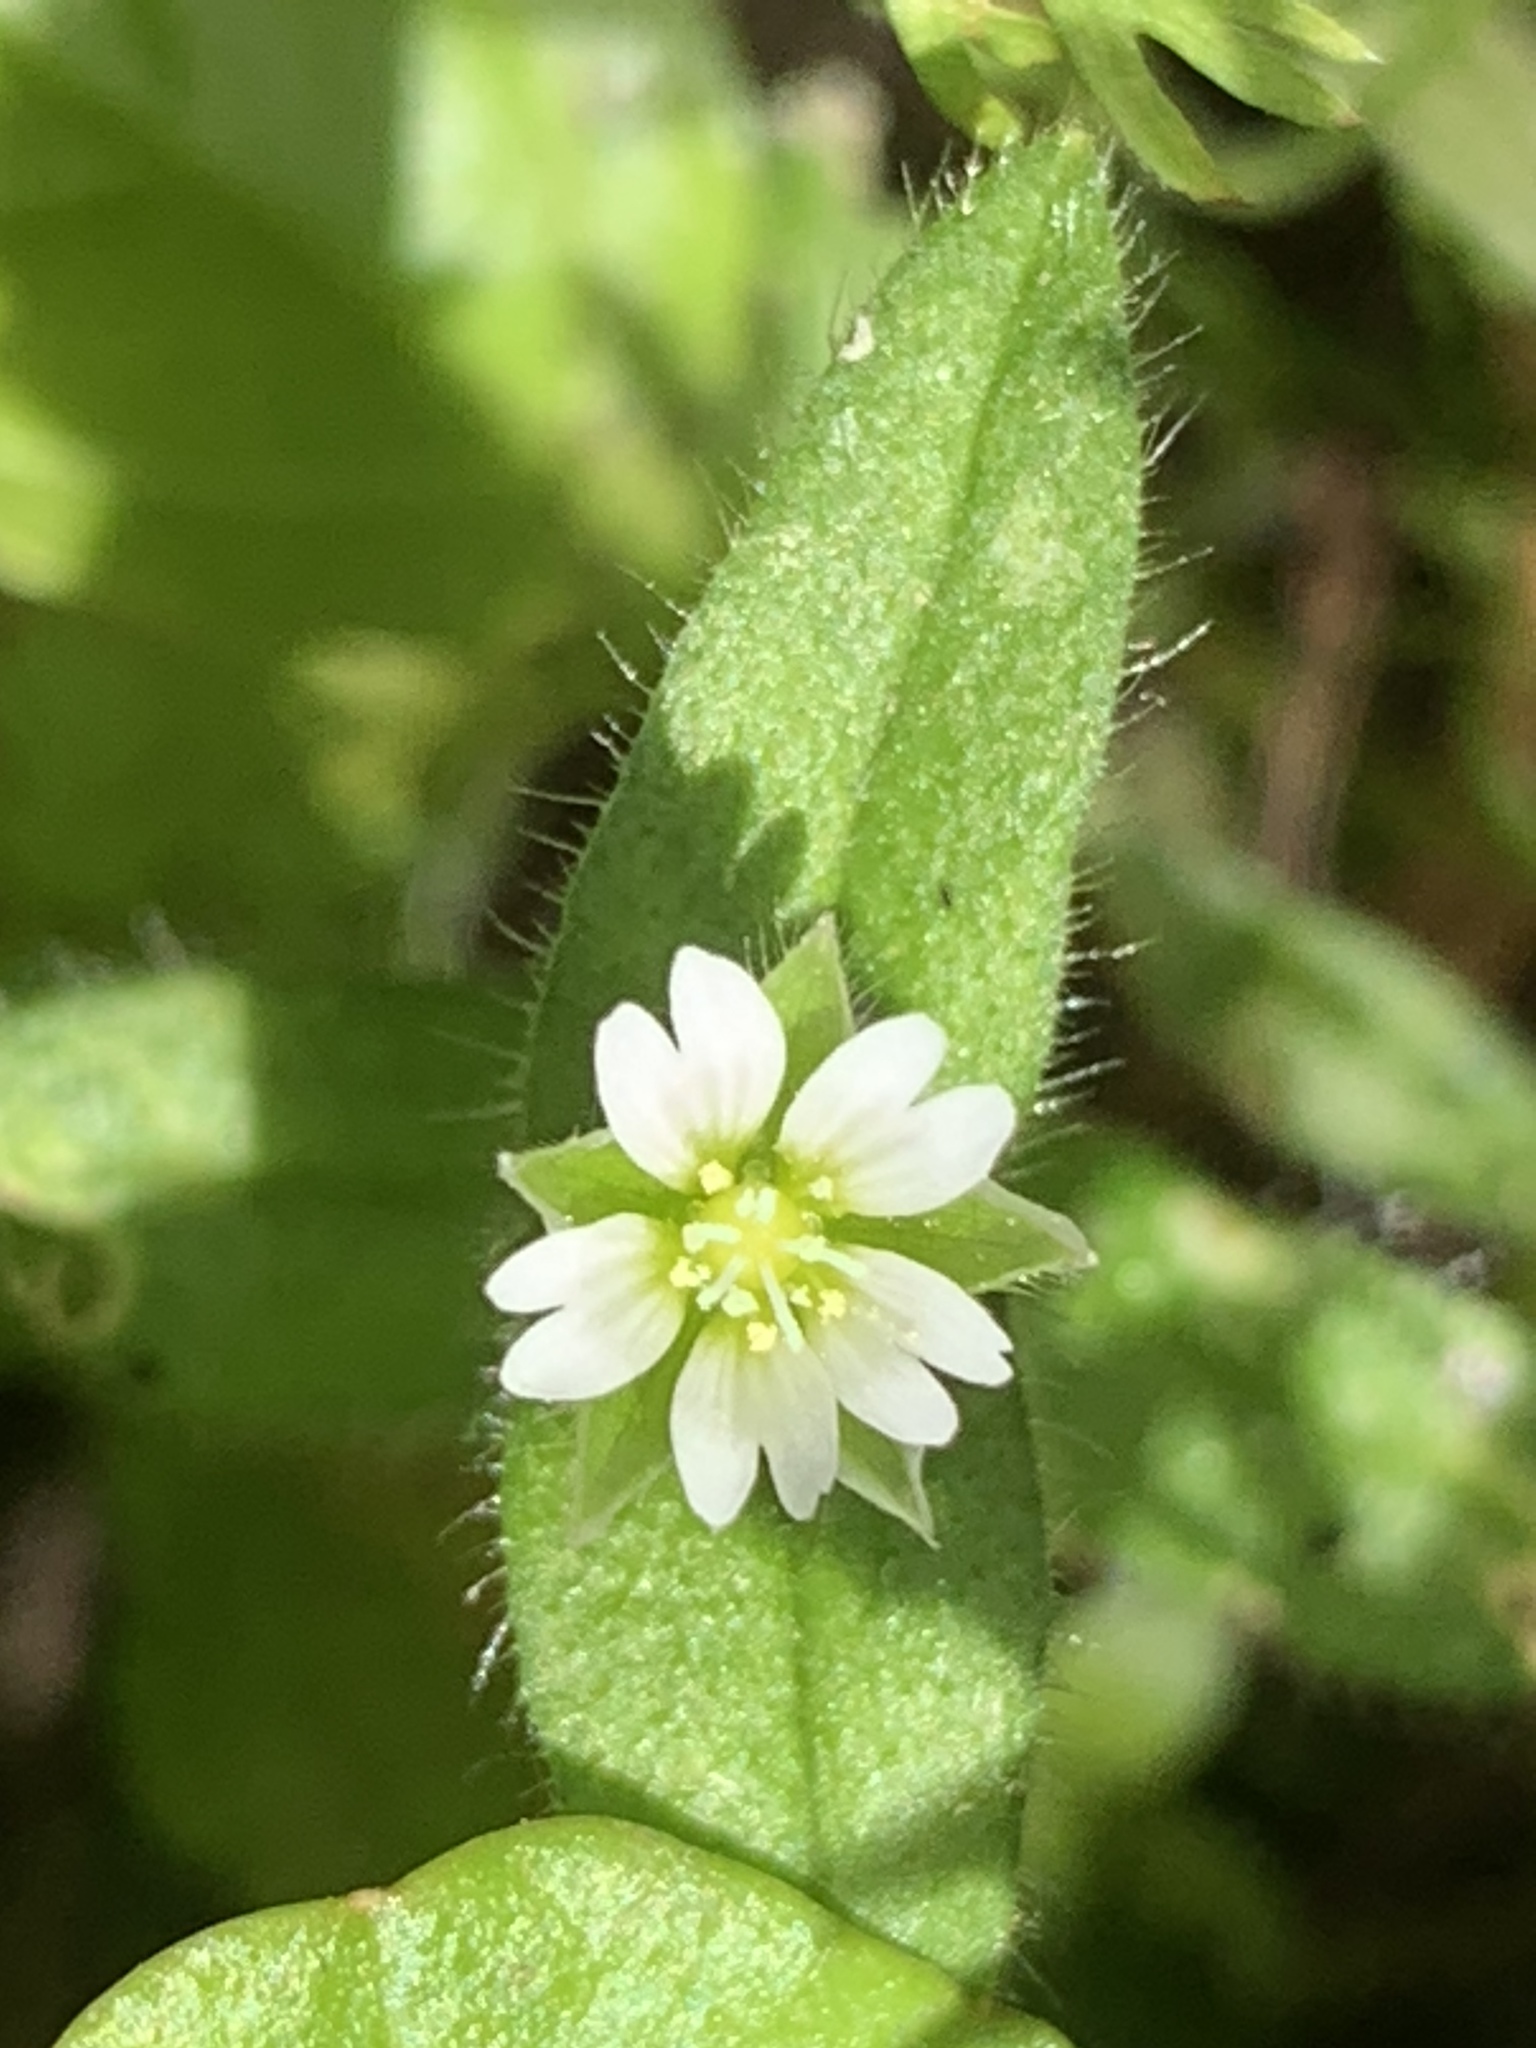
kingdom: Plantae
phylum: Tracheophyta
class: Magnoliopsida
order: Caryophyllales
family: Caryophyllaceae
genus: Cerastium
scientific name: Cerastium fontanum
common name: Common mouse-ear
